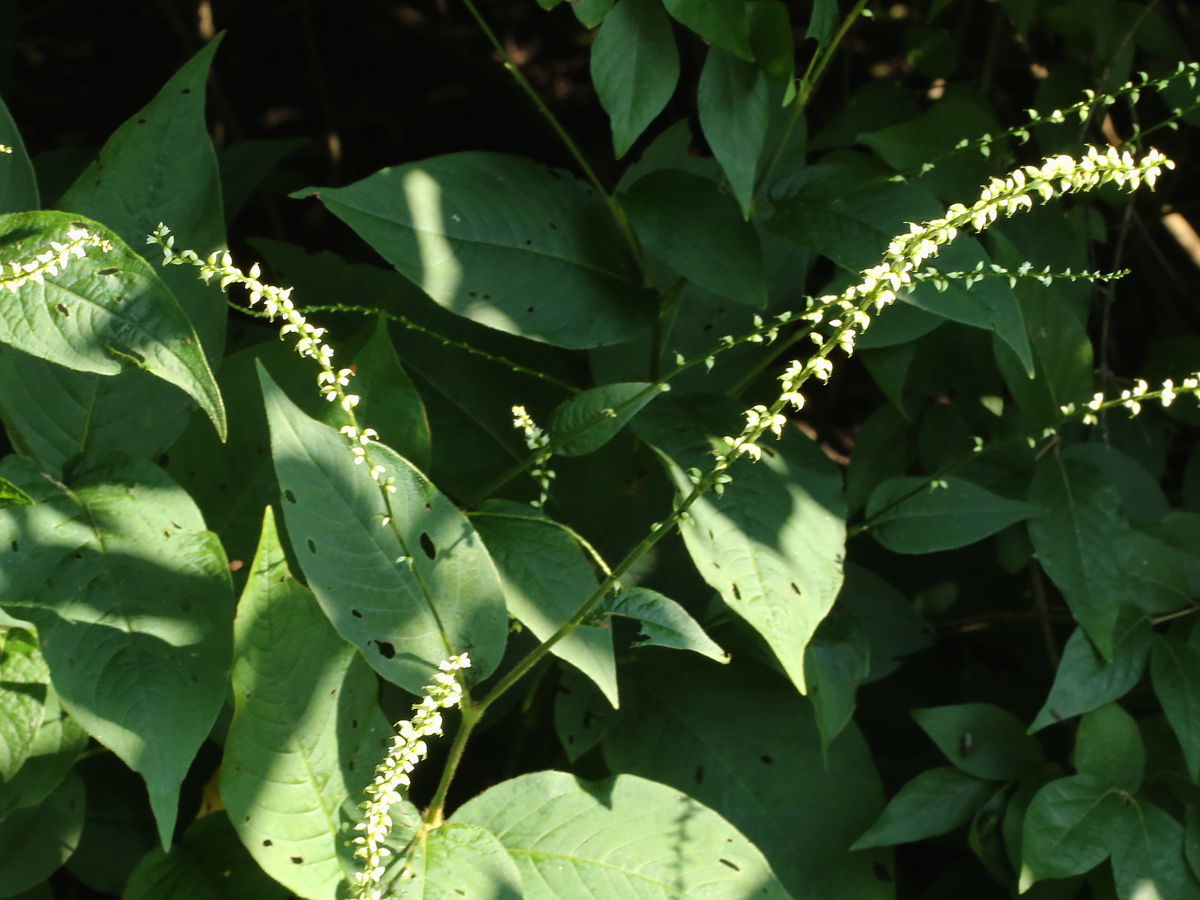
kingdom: Plantae
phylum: Tracheophyta
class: Magnoliopsida
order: Caryophyllales
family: Polygonaceae
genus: Persicaria
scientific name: Persicaria virginiana
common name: Jumpseed
